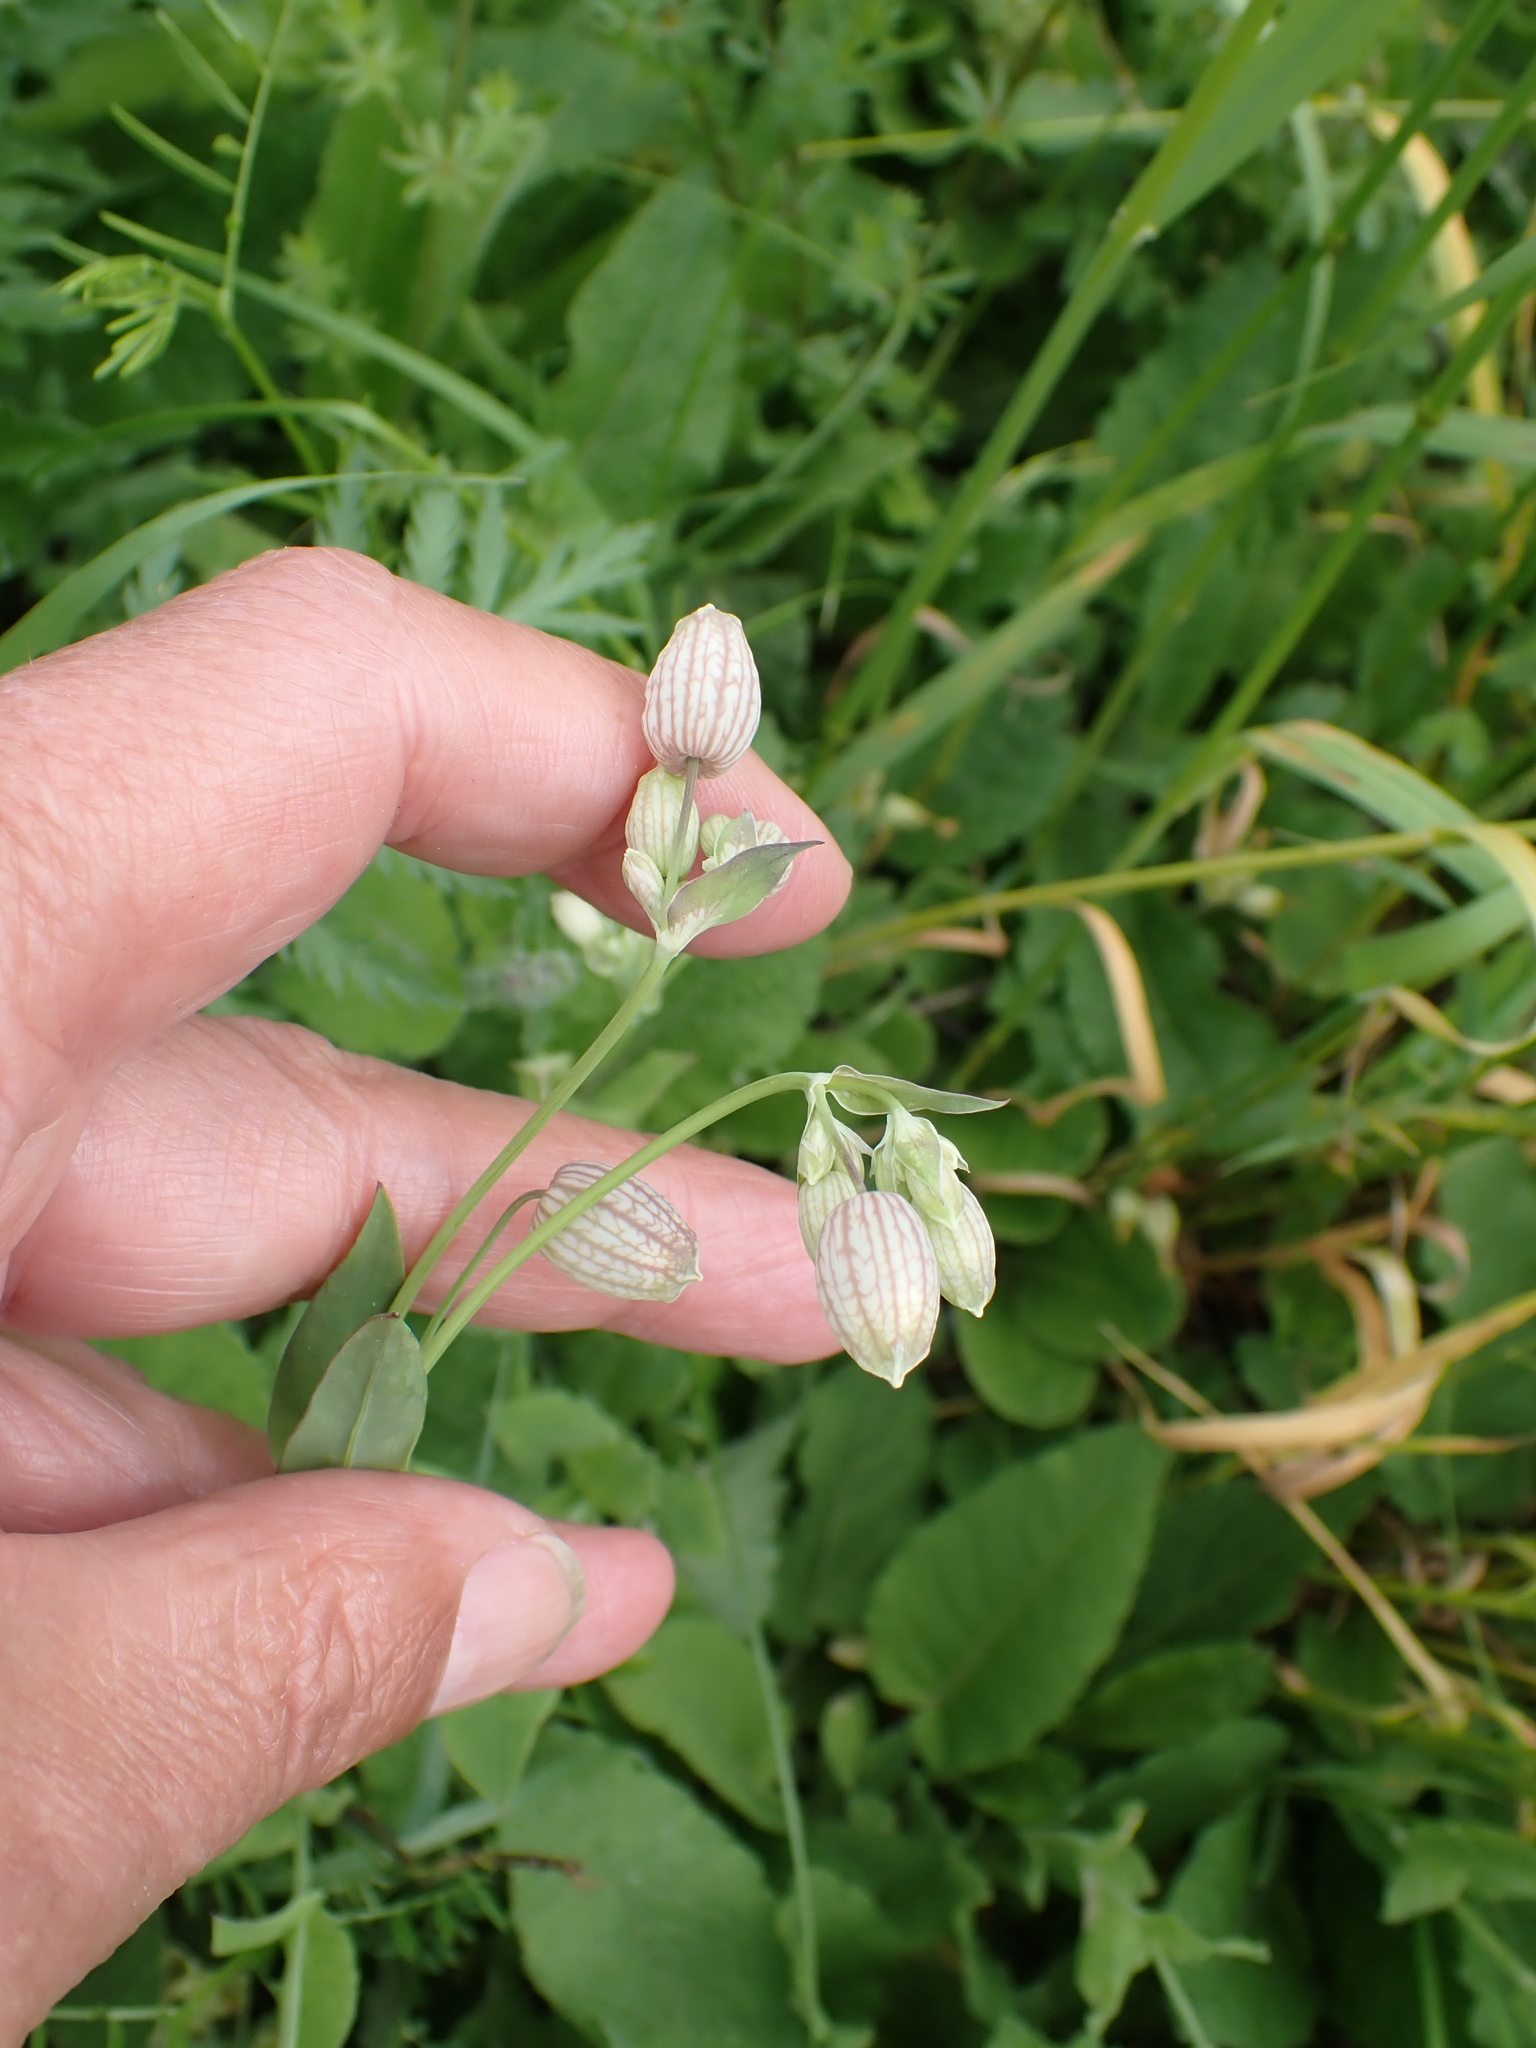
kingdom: Plantae
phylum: Tracheophyta
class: Magnoliopsida
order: Caryophyllales
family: Caryophyllaceae
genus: Silene
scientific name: Silene vulgaris
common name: Bladder campion
